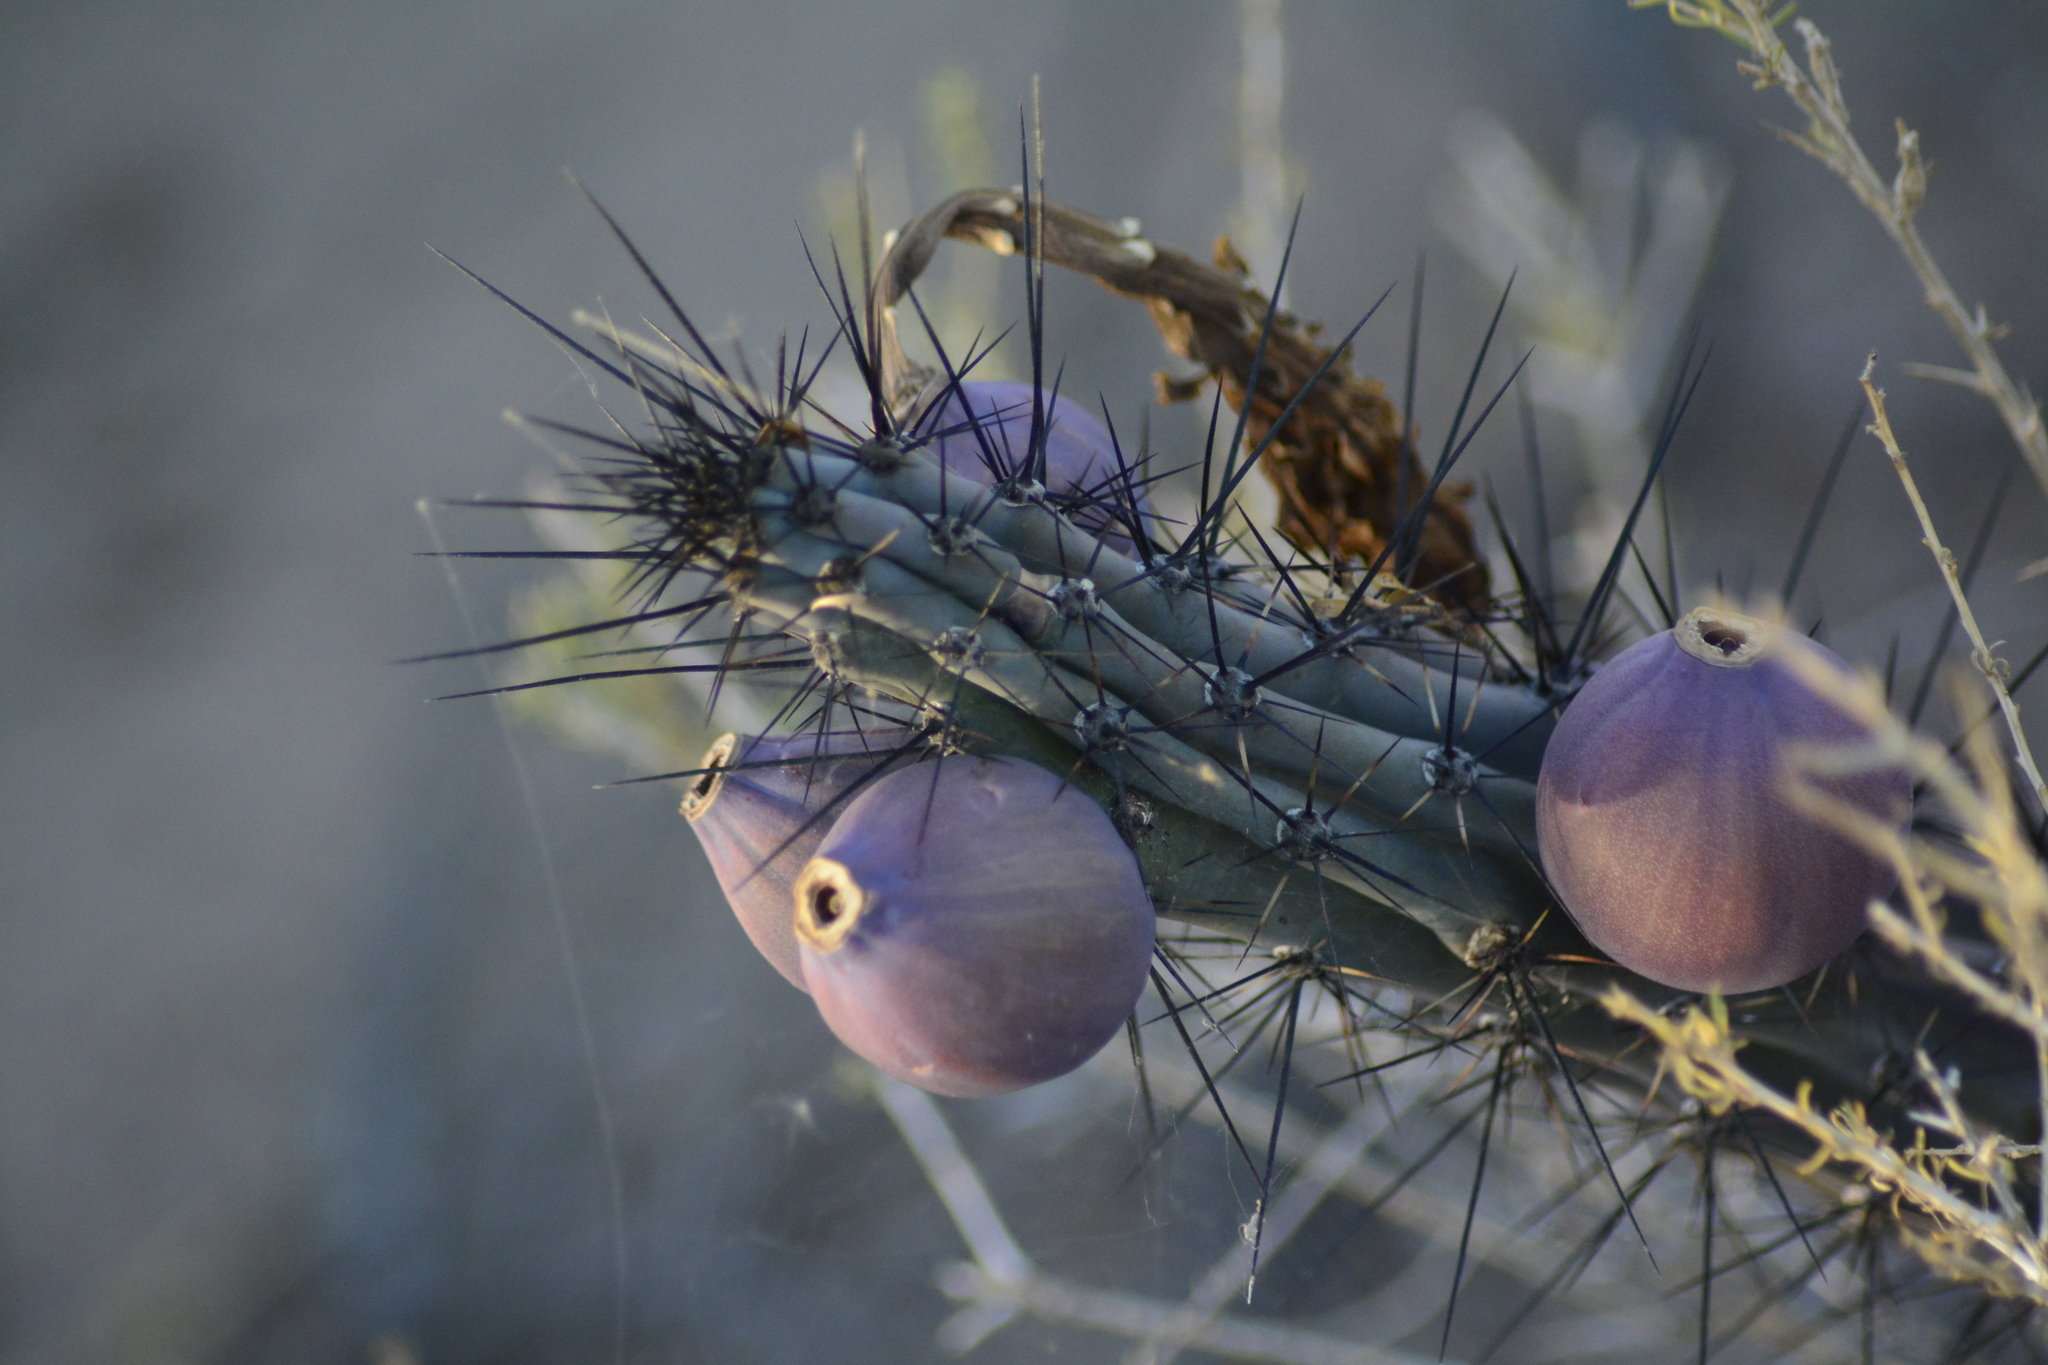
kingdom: Plantae
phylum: Tracheophyta
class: Magnoliopsida
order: Caryophyllales
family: Cactaceae
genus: Cereus
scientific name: Cereus aethiops
